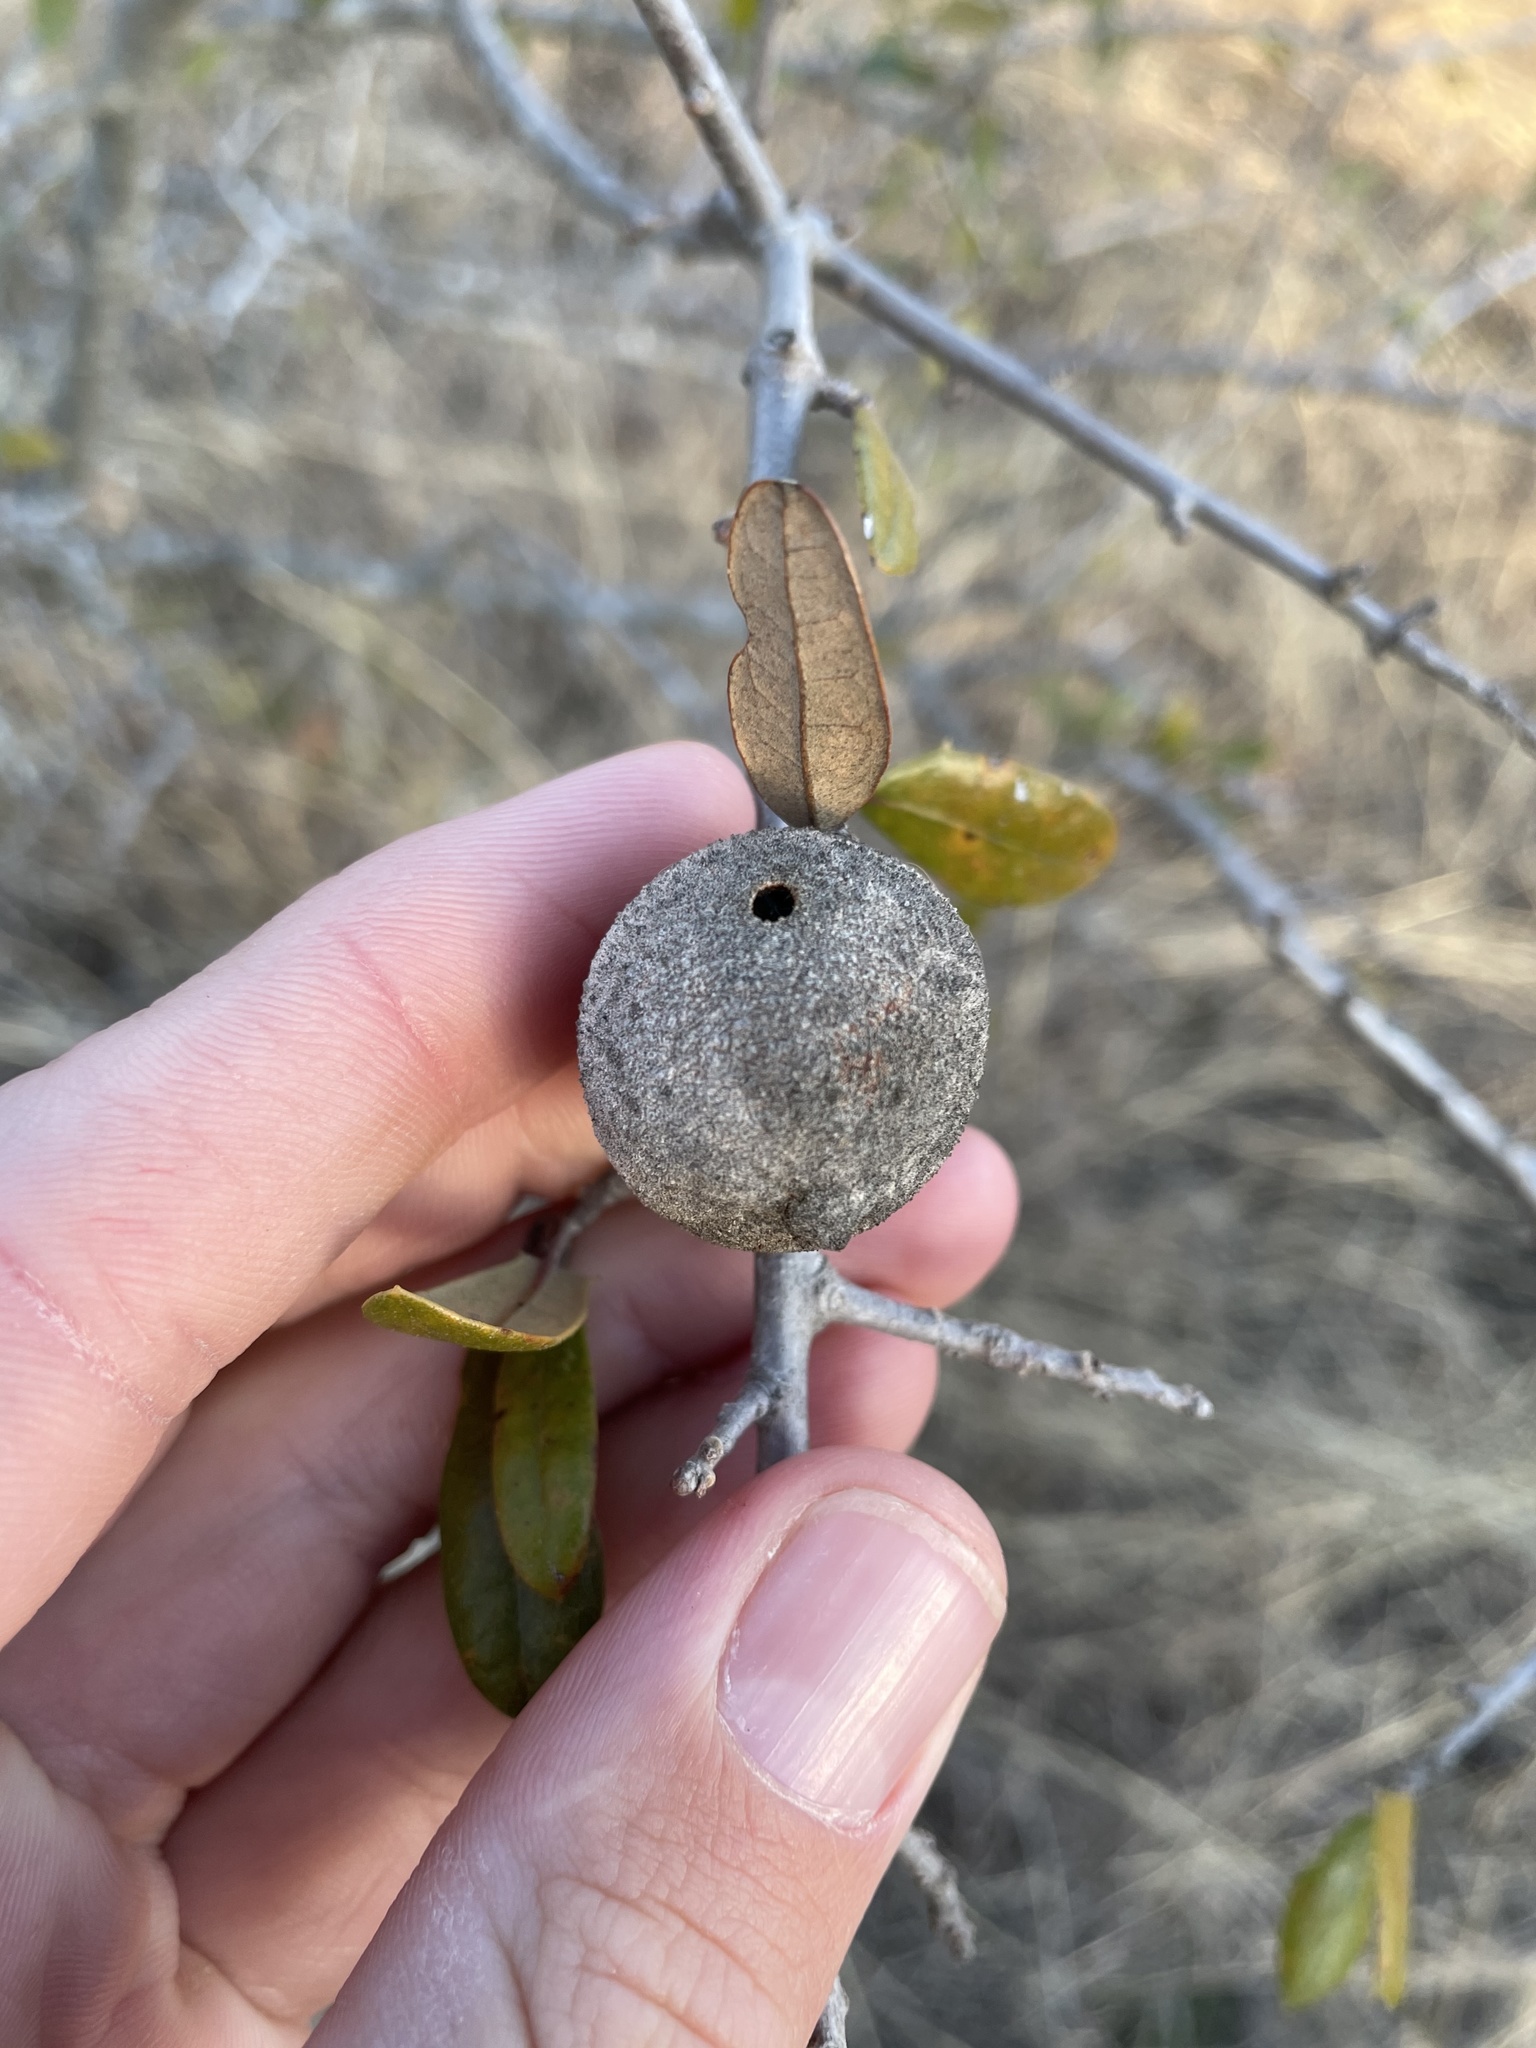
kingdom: Animalia
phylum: Arthropoda
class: Insecta
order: Hymenoptera
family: Cynipidae
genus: Disholcaspis
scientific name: Disholcaspis
